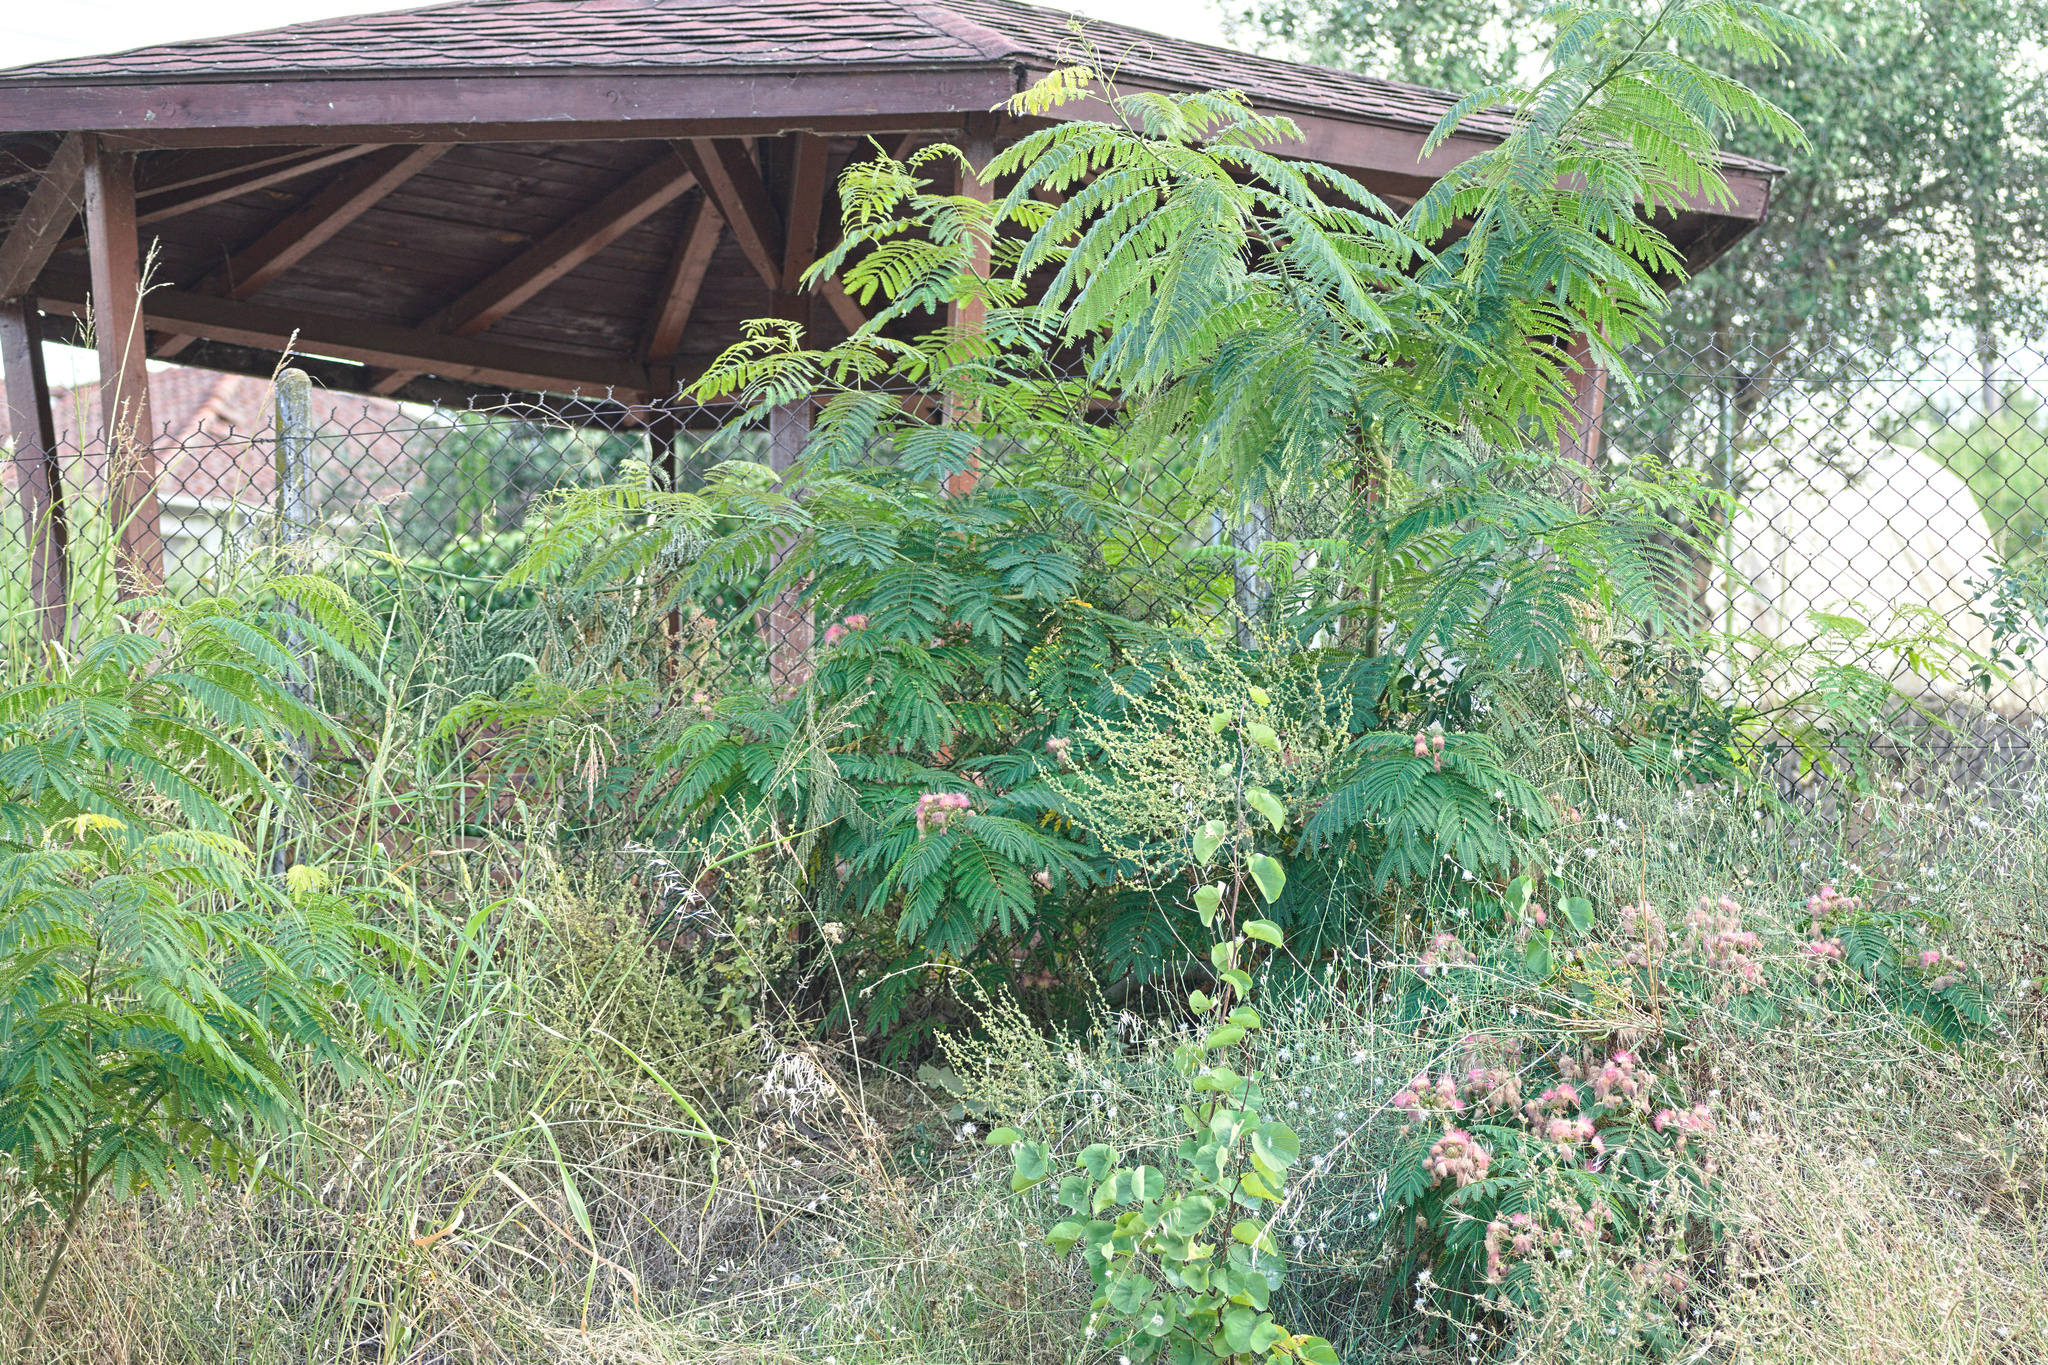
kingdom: Plantae
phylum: Tracheophyta
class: Magnoliopsida
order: Fabales
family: Fabaceae
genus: Albizia
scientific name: Albizia julibrissin
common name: Silktree
